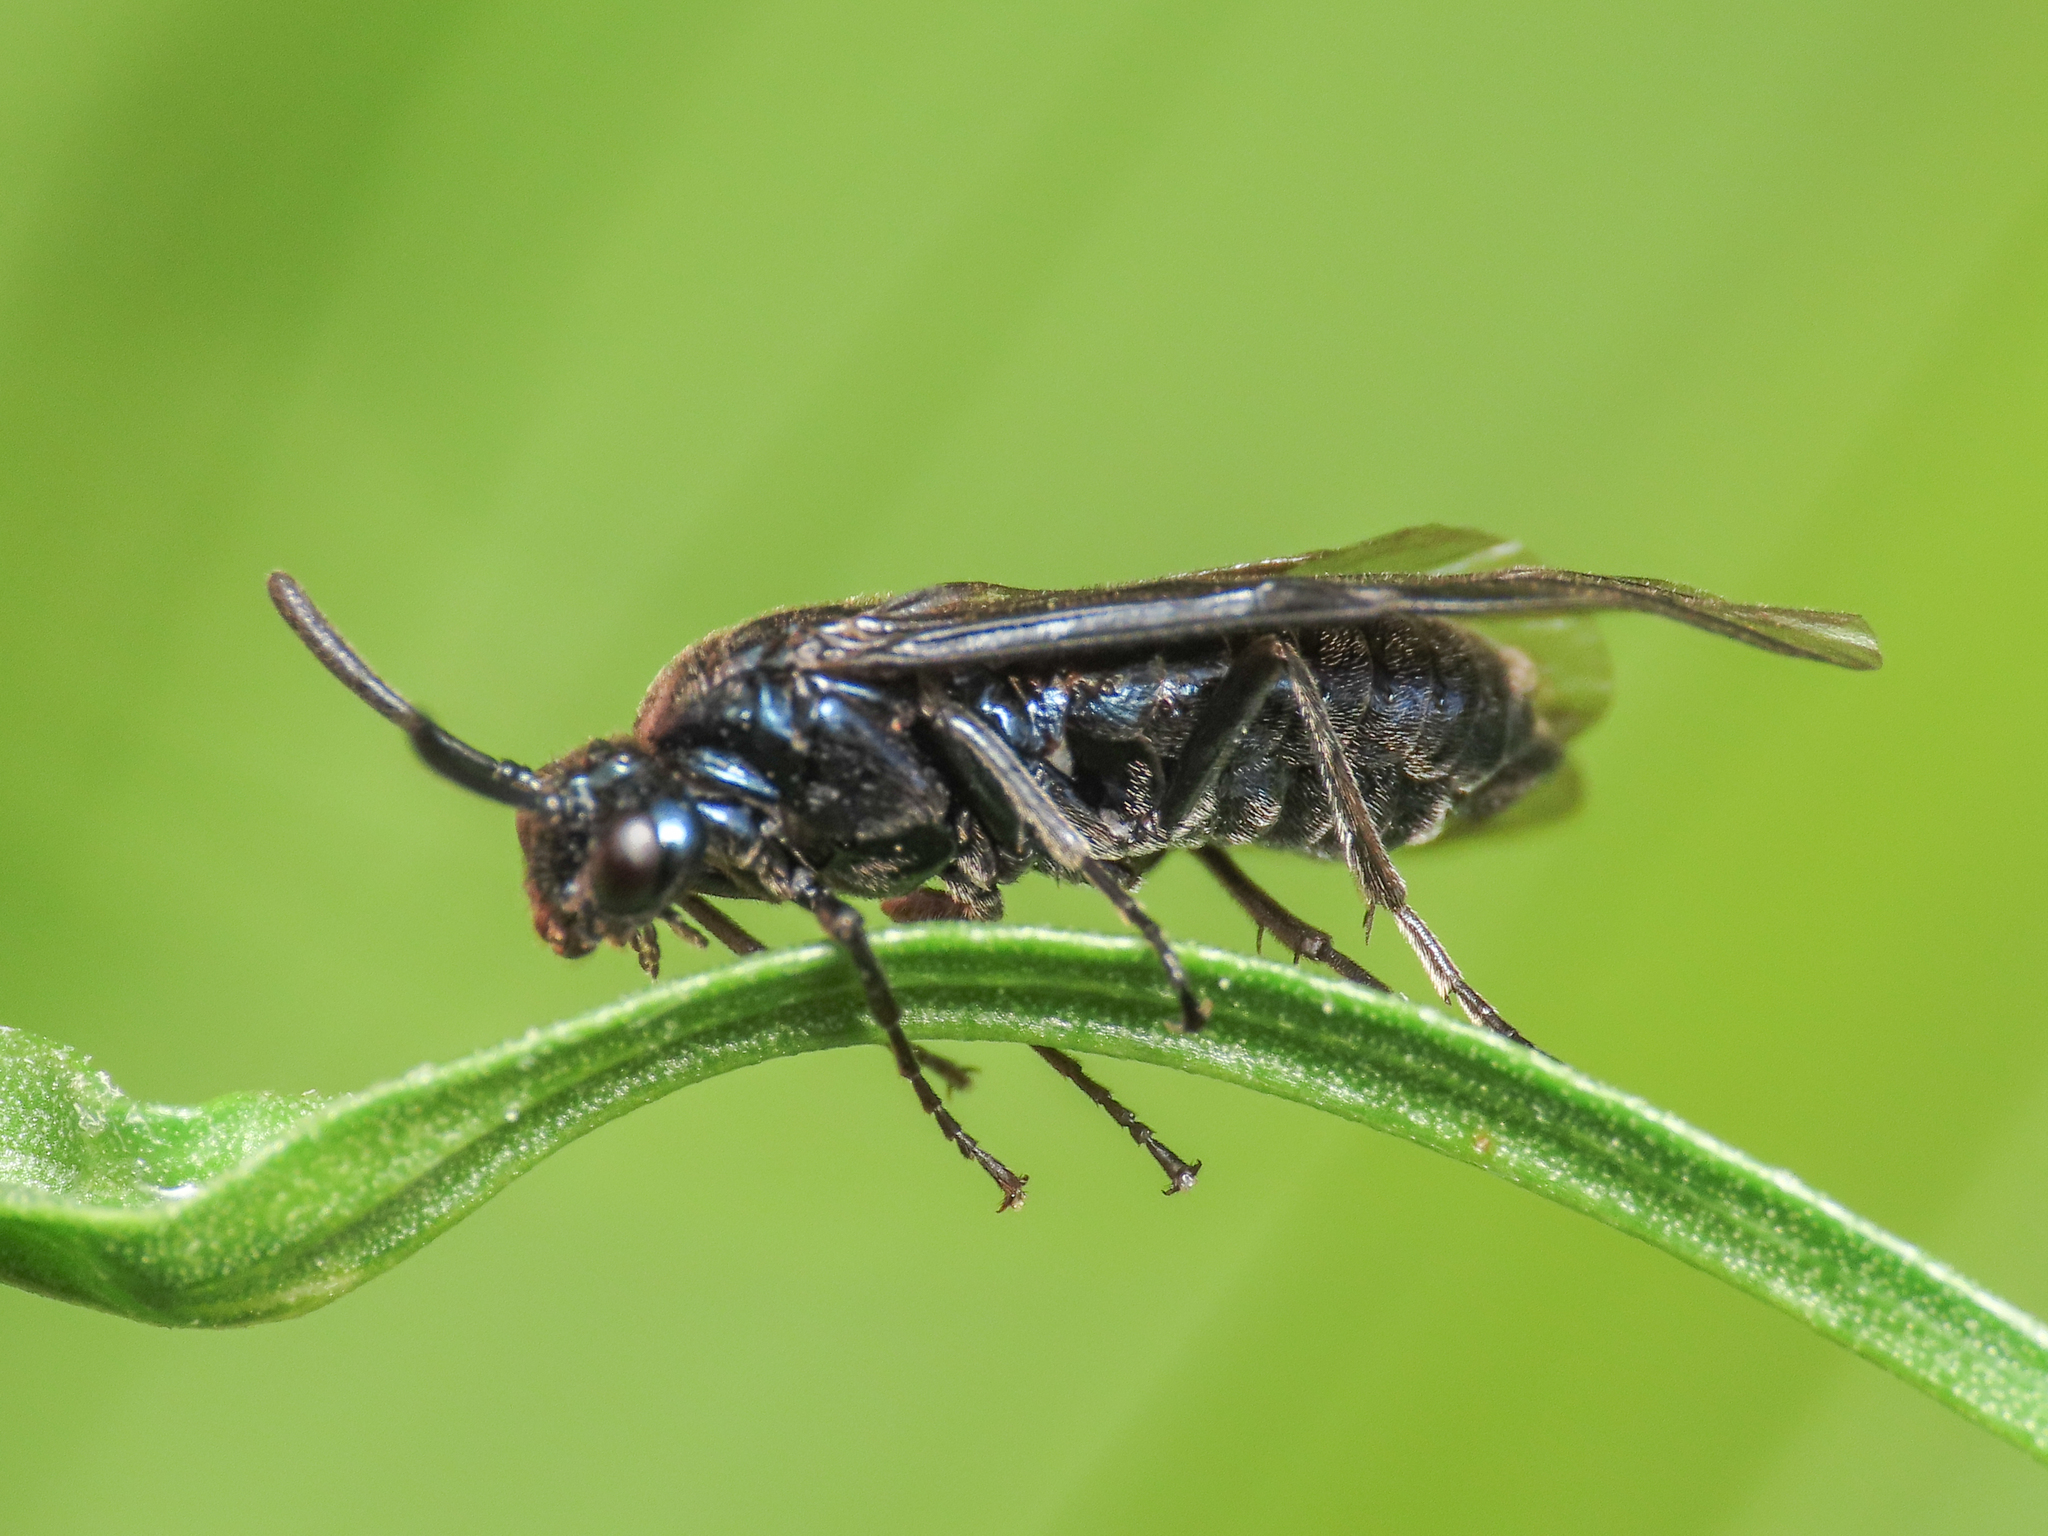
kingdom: Animalia
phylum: Arthropoda
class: Insecta
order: Hymenoptera
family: Argidae
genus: Arge
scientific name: Arge nigripes
